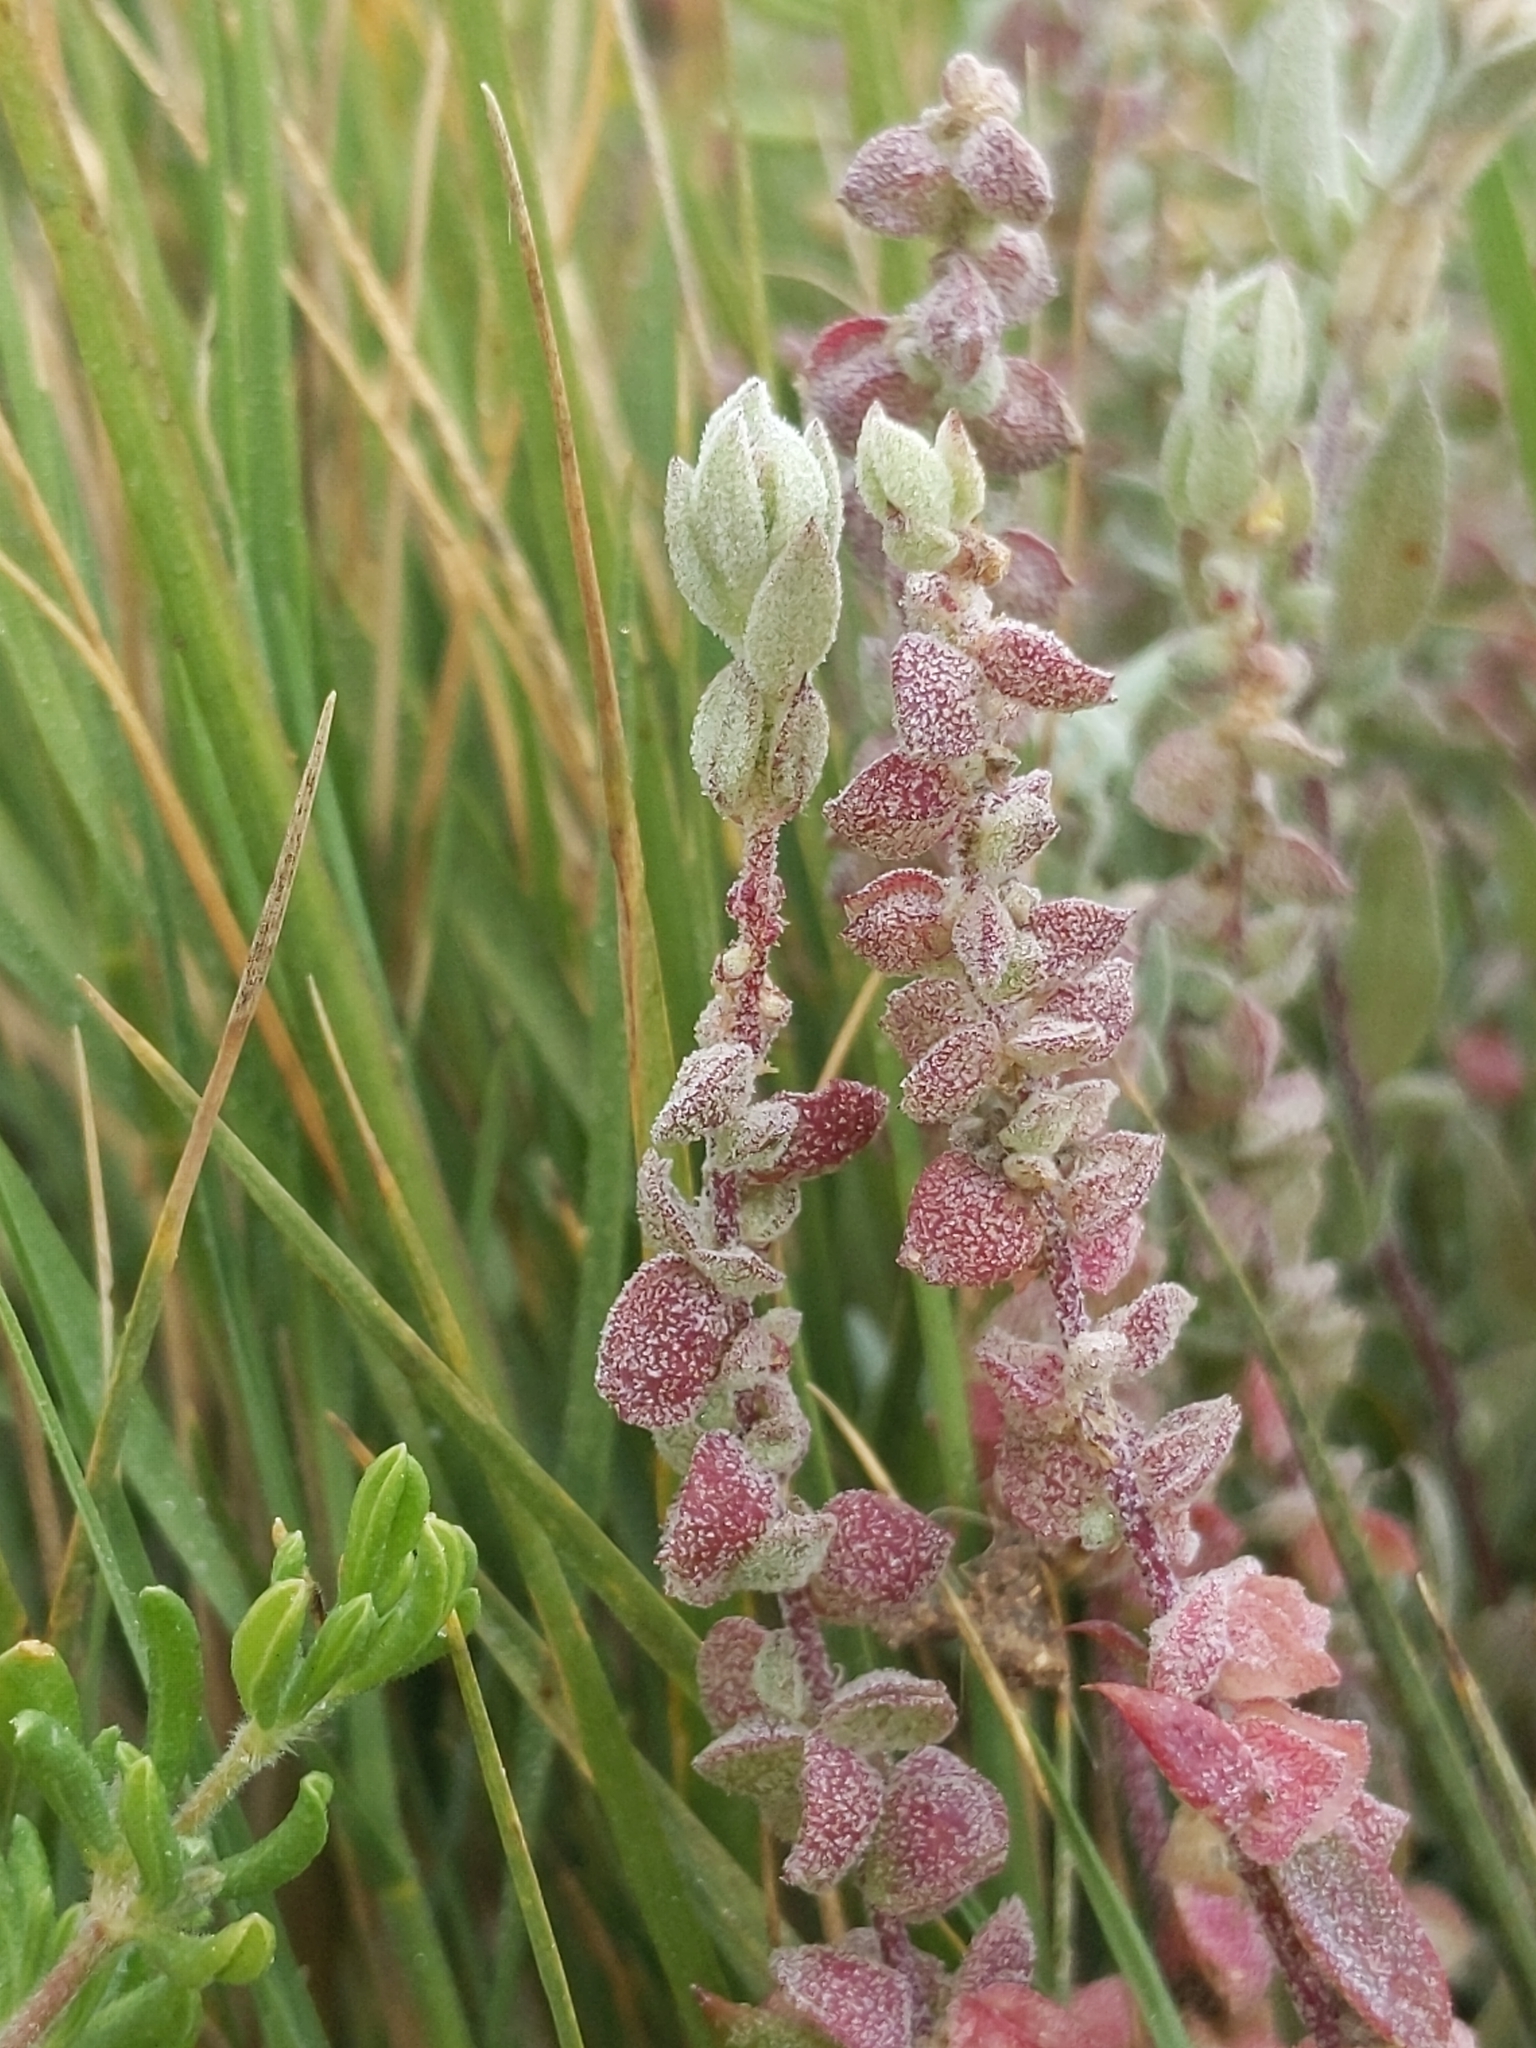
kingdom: Plantae
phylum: Tracheophyta
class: Magnoliopsida
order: Caryophyllales
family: Amaranthaceae
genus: Extriplex
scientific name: Extriplex californica
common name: California saltbush
